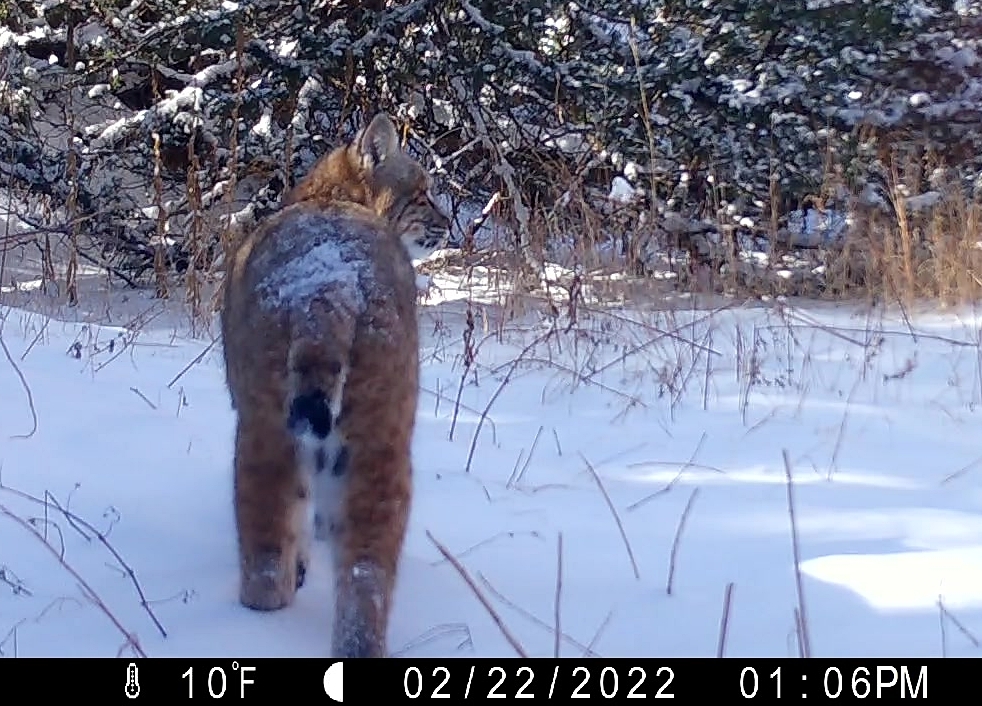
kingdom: Animalia
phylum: Chordata
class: Mammalia
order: Carnivora
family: Felidae
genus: Lynx
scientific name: Lynx rufus
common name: Bobcat
